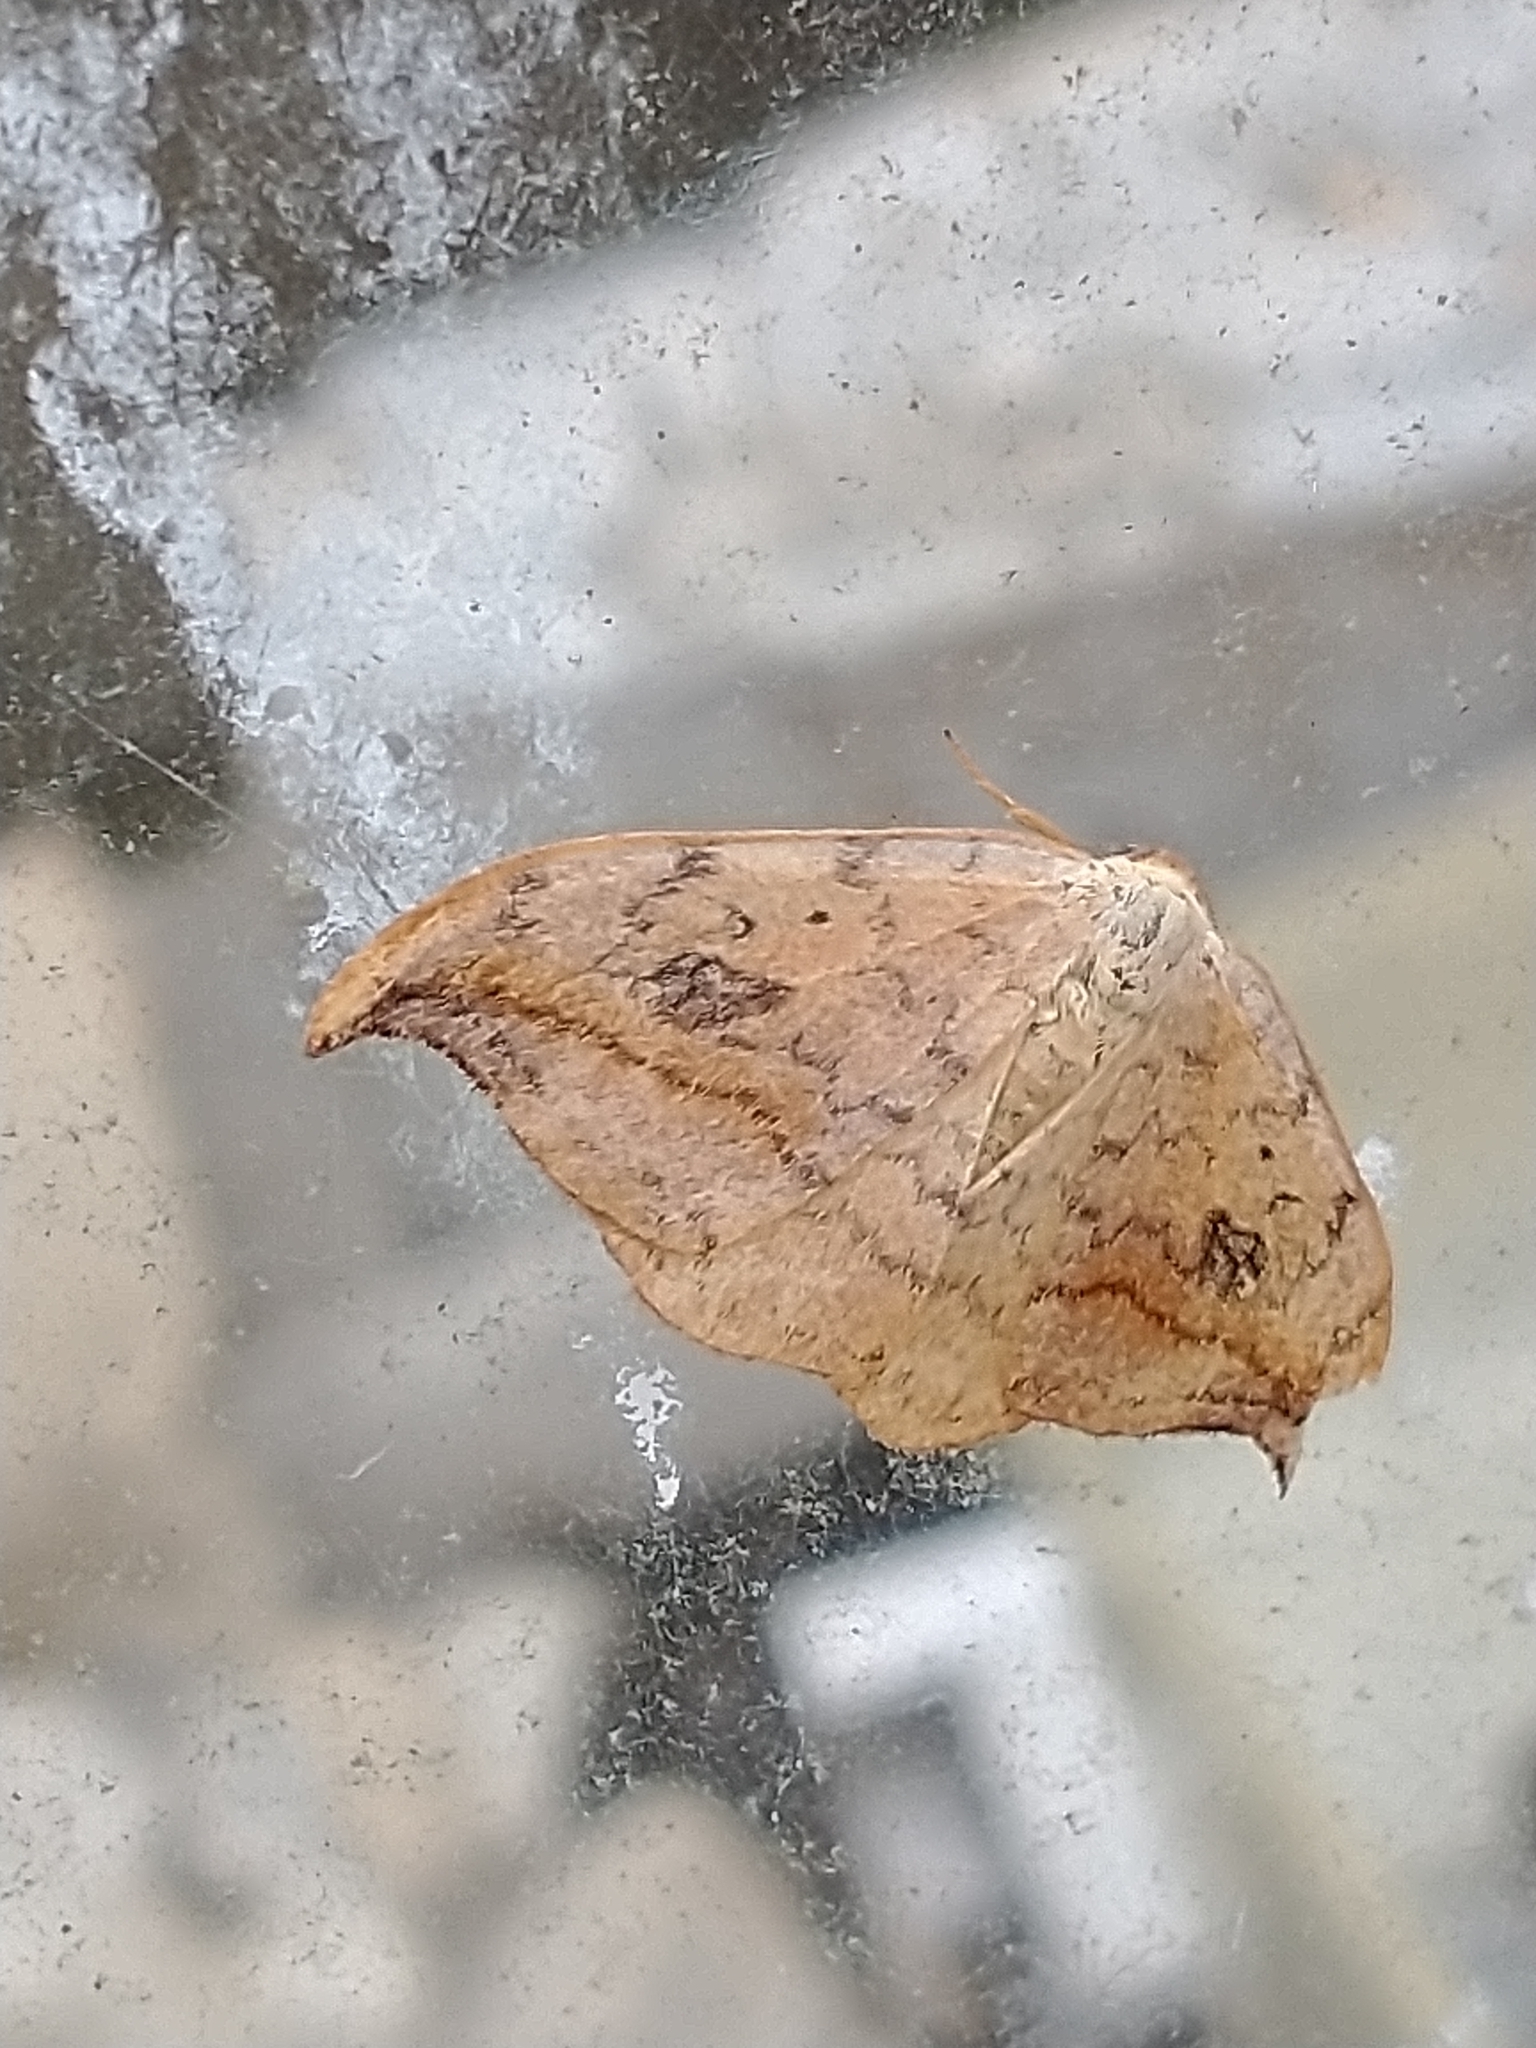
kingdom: Animalia
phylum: Arthropoda
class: Insecta
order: Lepidoptera
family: Drepanidae
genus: Drepana
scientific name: Drepana falcataria
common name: Pebble hook-tip
